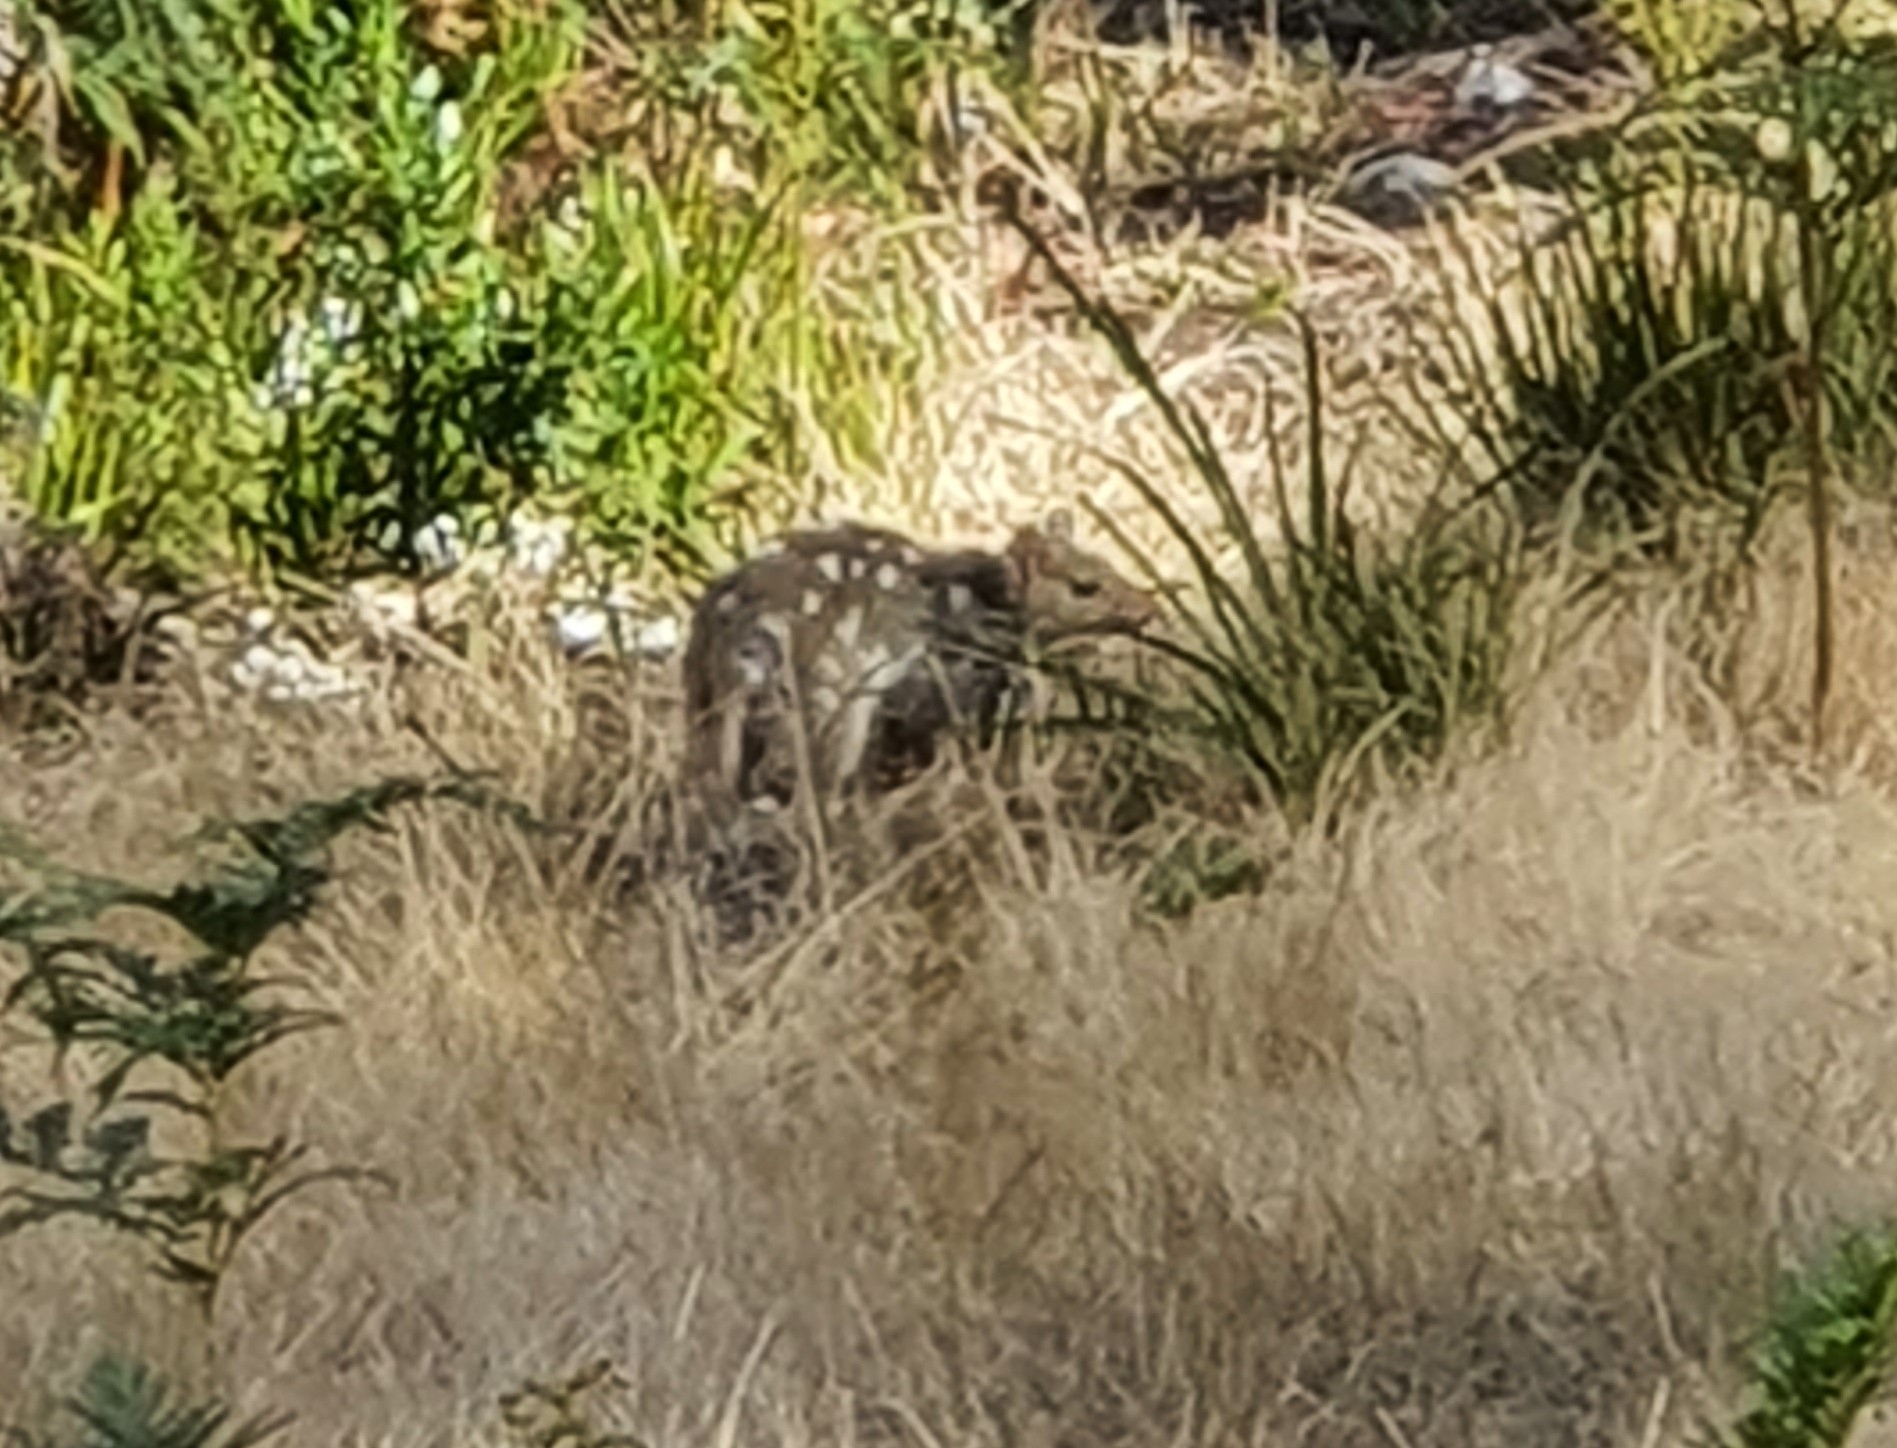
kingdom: Animalia
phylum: Chordata
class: Mammalia
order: Dasyuromorphia
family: Dasyuridae
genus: Dasyurus
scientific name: Dasyurus viverrinus
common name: Eastern quoll
